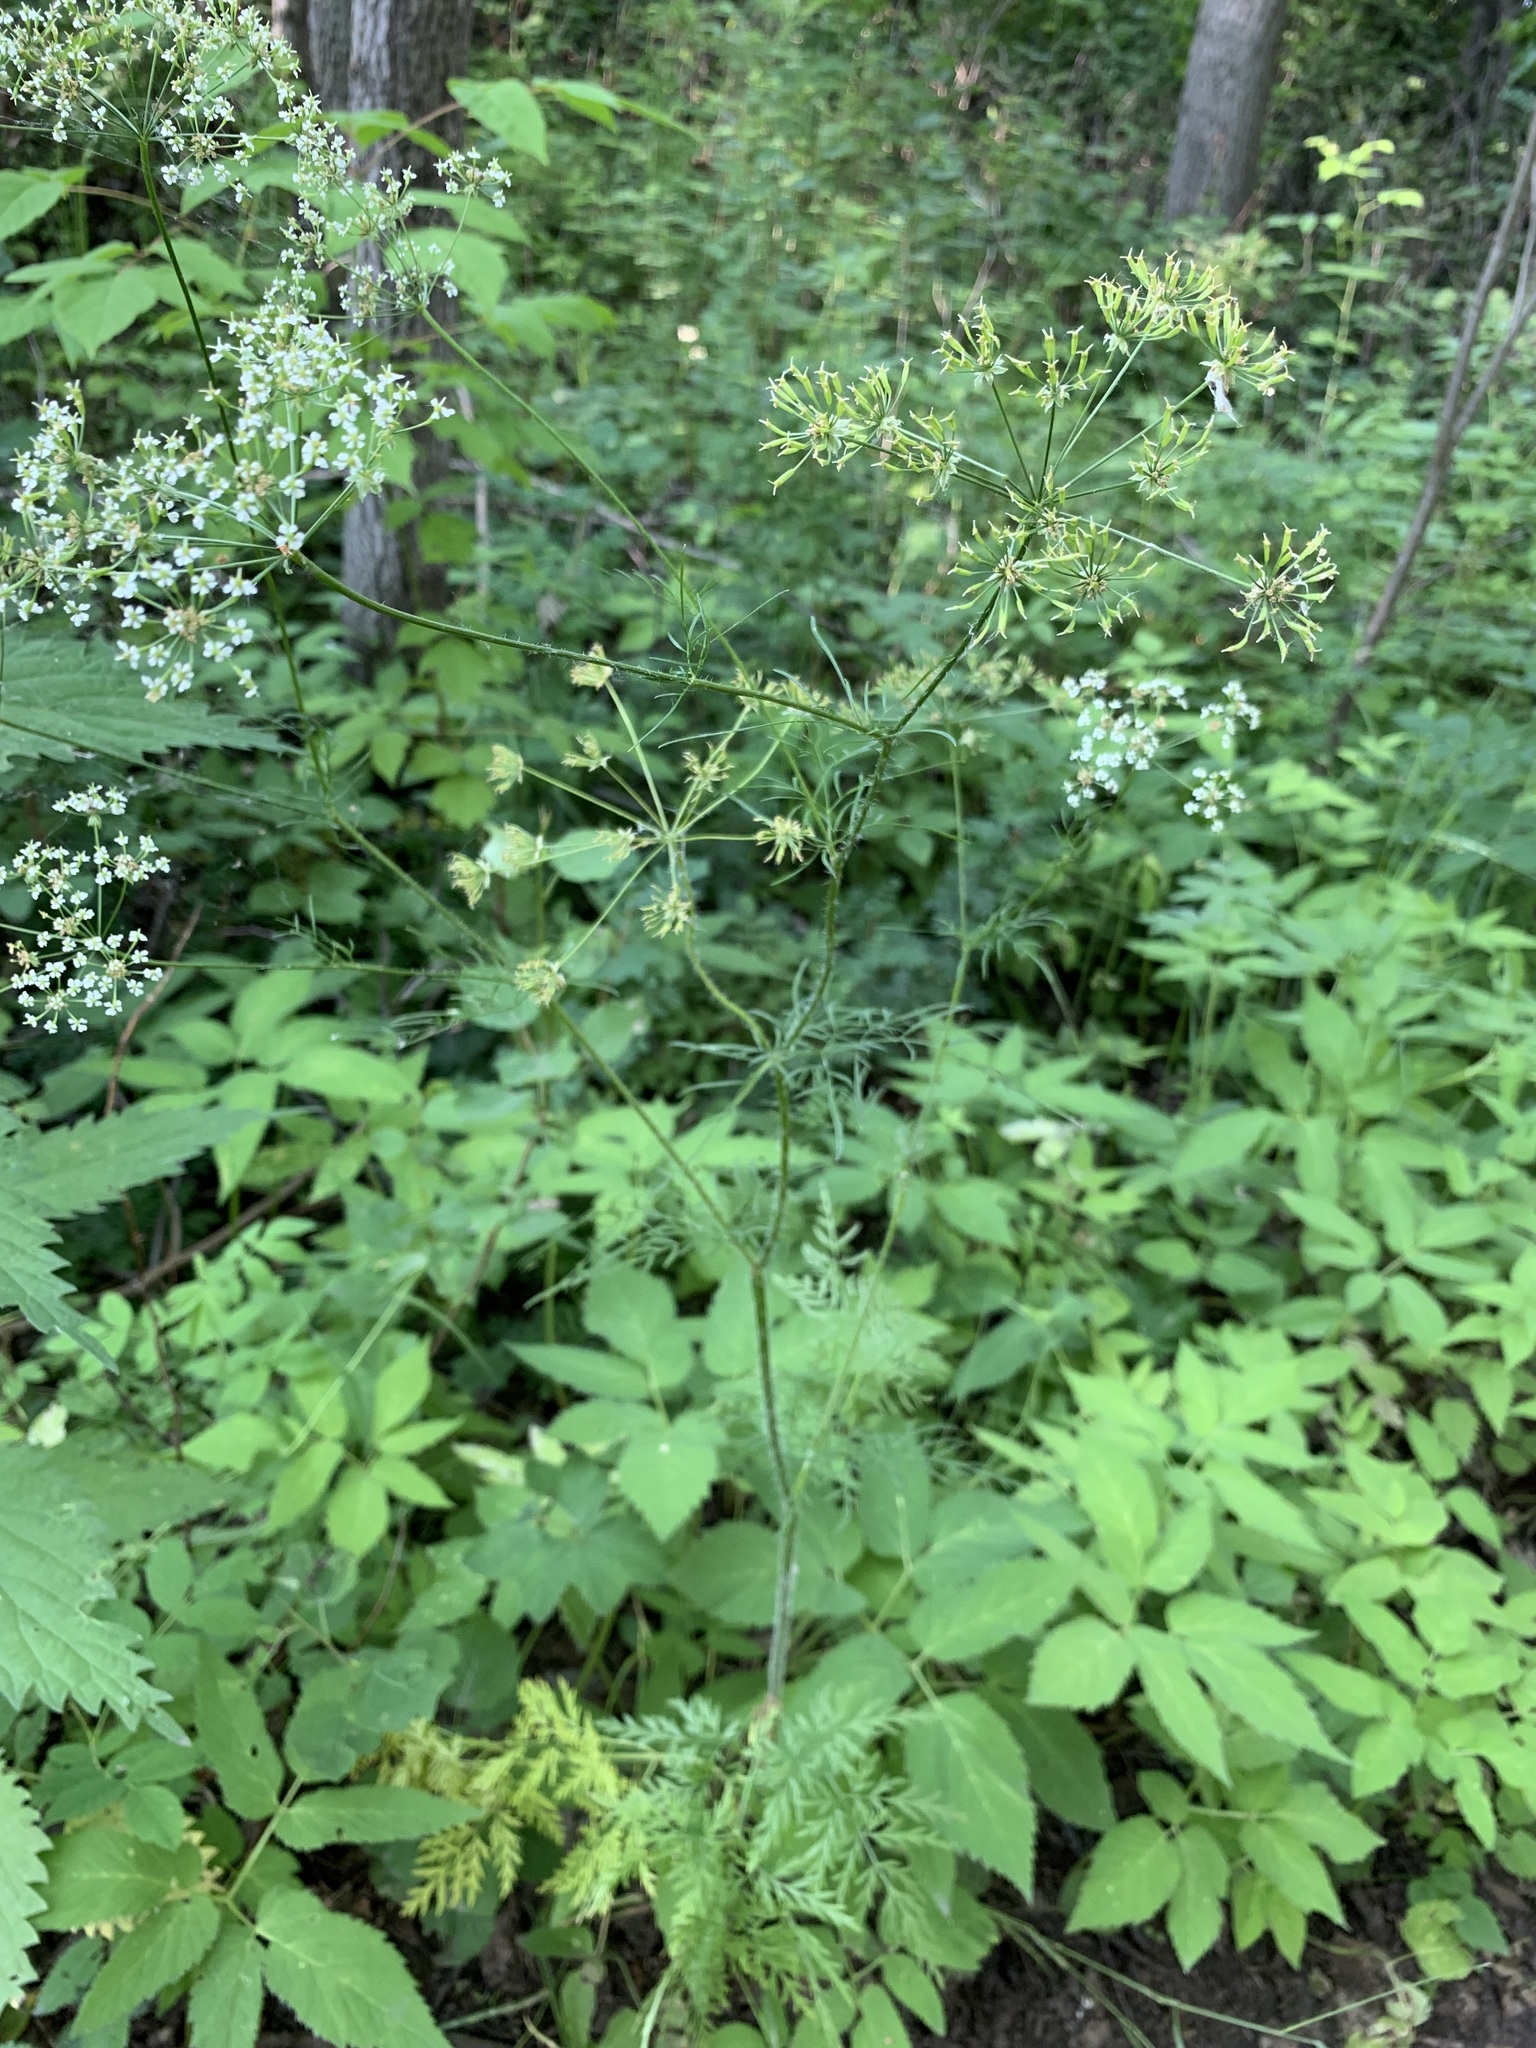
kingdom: Plantae
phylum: Tracheophyta
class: Magnoliopsida
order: Apiales
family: Apiaceae
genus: Chaerophyllum
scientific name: Chaerophyllum prescottii
